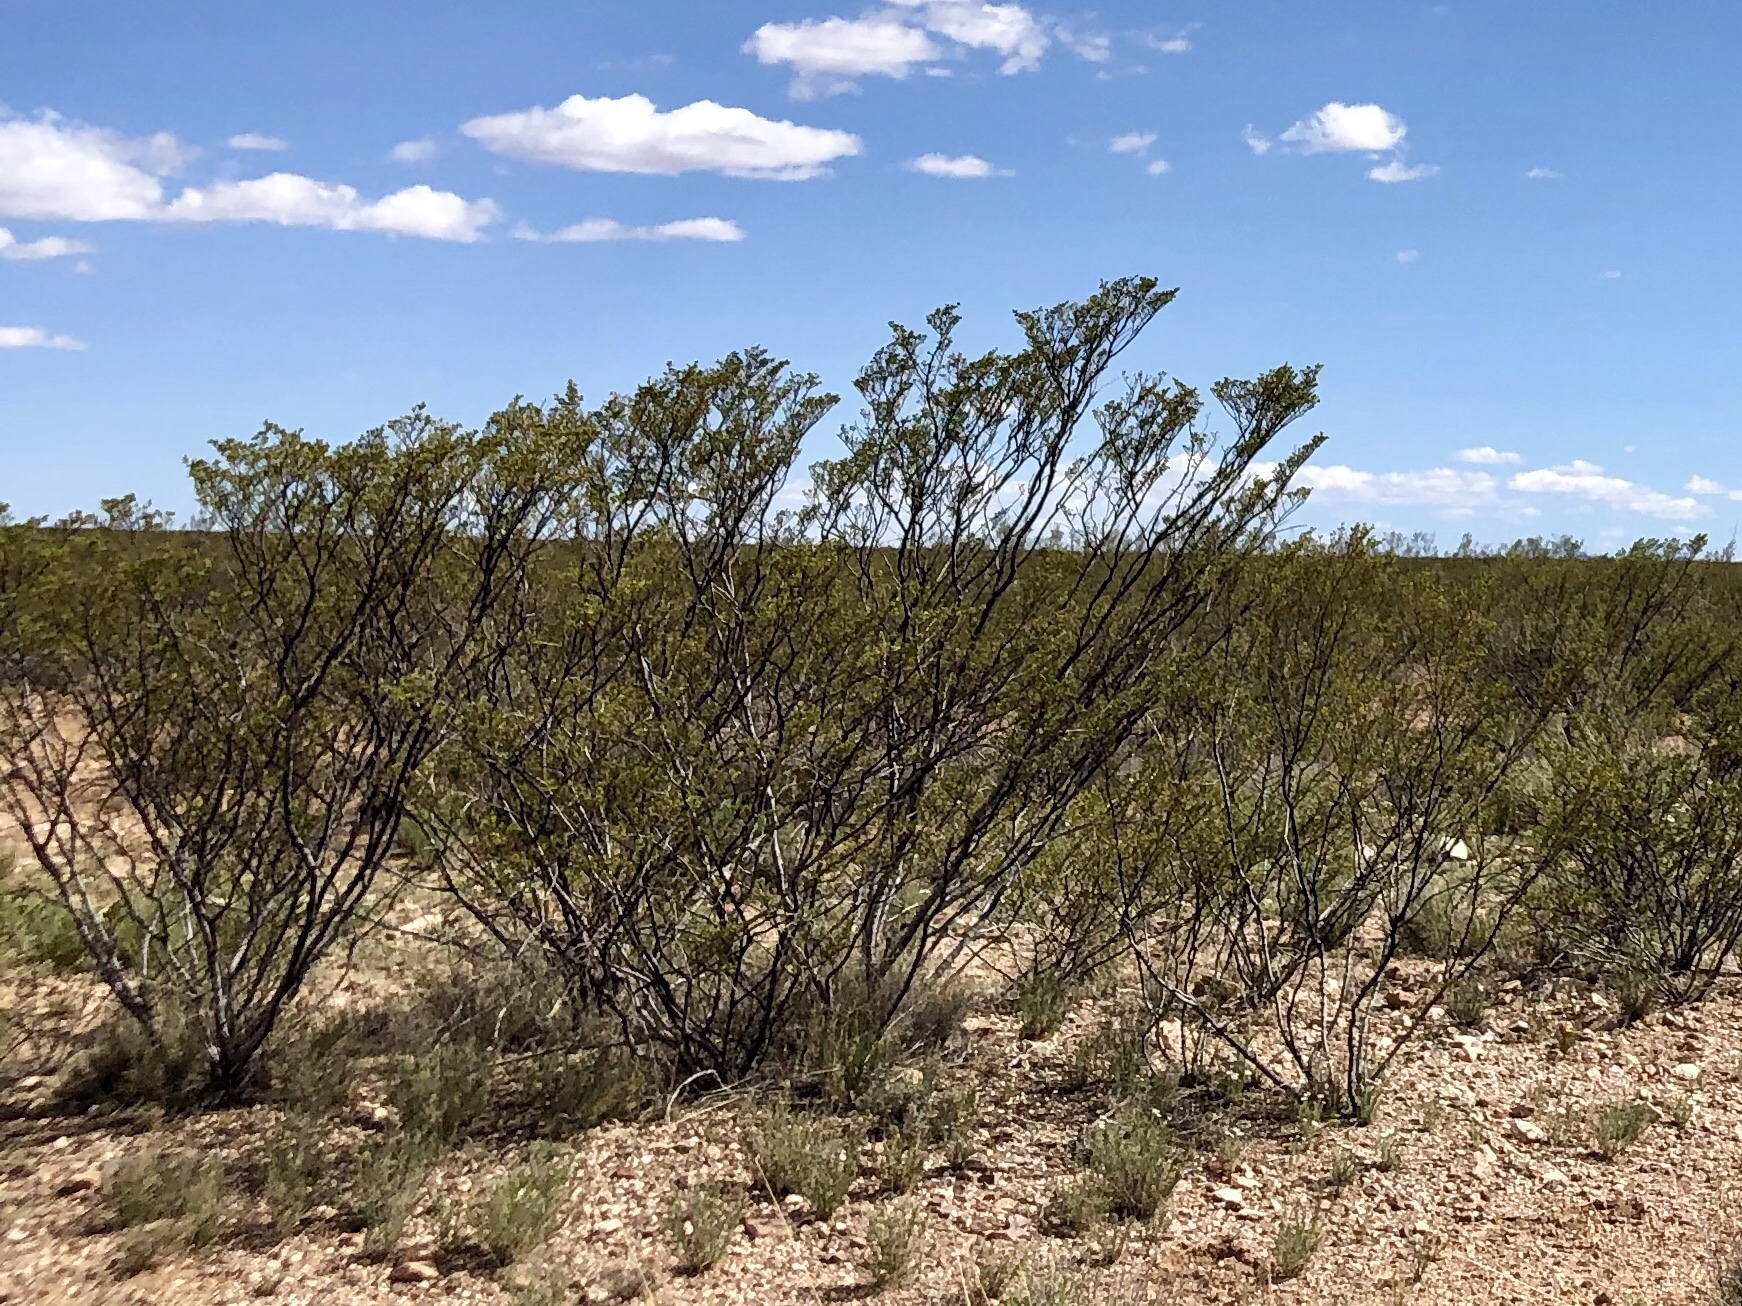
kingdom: Plantae
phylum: Tracheophyta
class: Magnoliopsida
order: Zygophyllales
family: Zygophyllaceae
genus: Larrea
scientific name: Larrea tridentata
